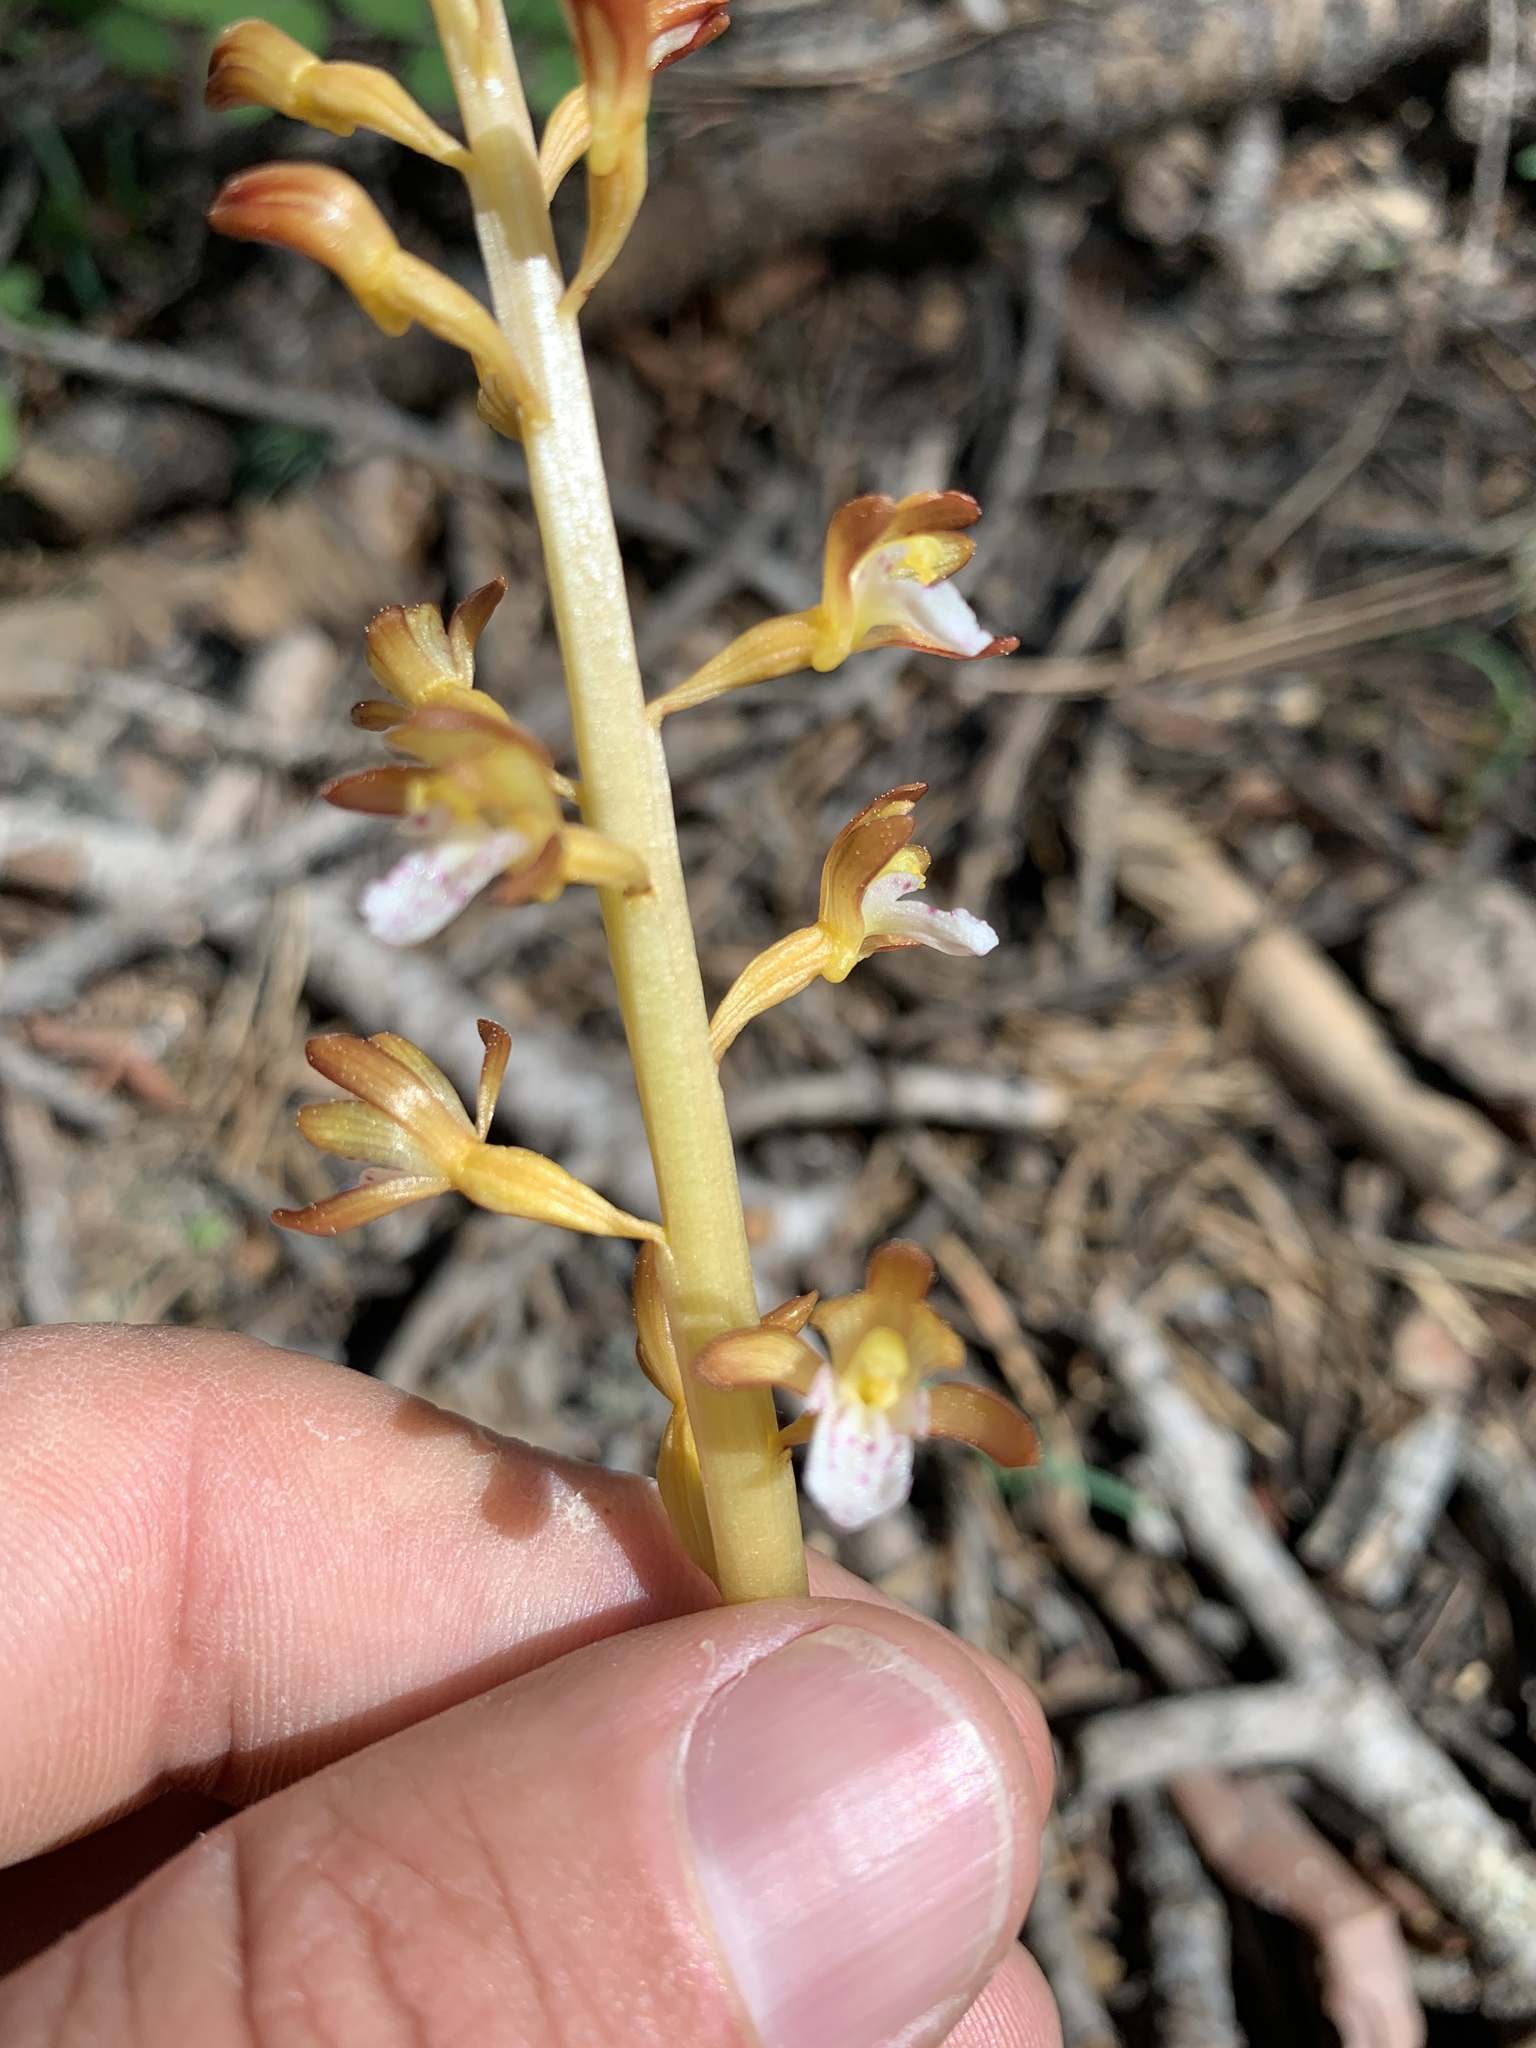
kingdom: Plantae
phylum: Tracheophyta
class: Liliopsida
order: Asparagales
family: Orchidaceae
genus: Corallorhiza
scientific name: Corallorhiza maculata
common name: Spotted coralroot
